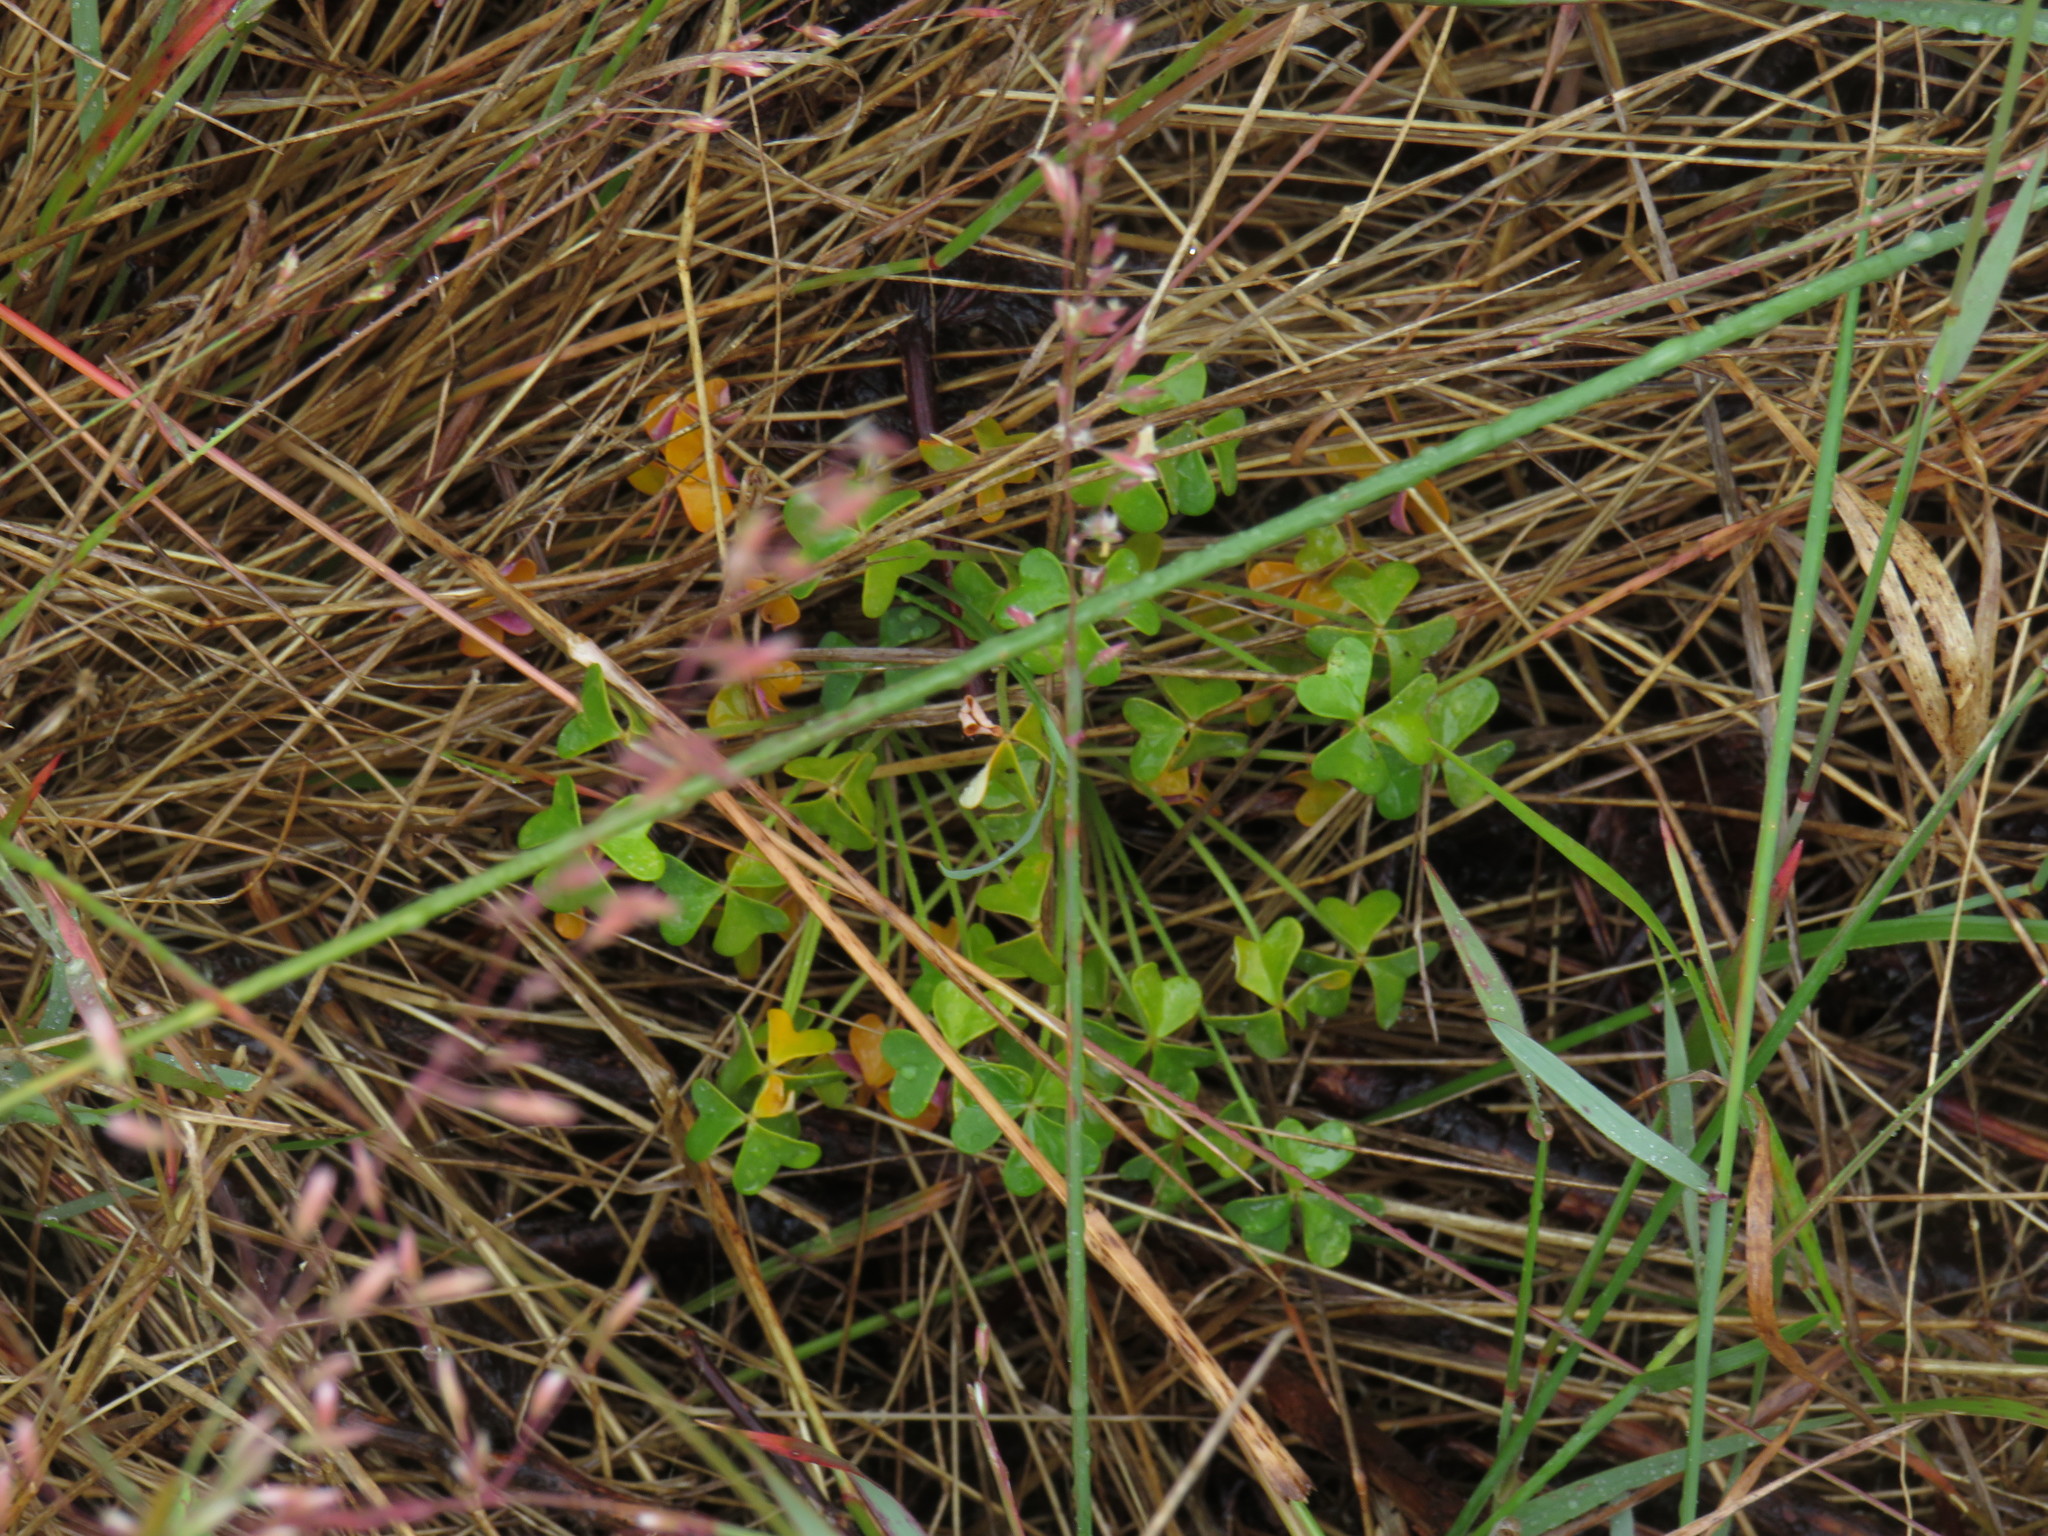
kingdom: Plantae
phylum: Tracheophyta
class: Magnoliopsida
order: Oxalidales
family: Oxalidaceae
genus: Oxalis
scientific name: Oxalis pes-caprae
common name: Bermuda-buttercup
